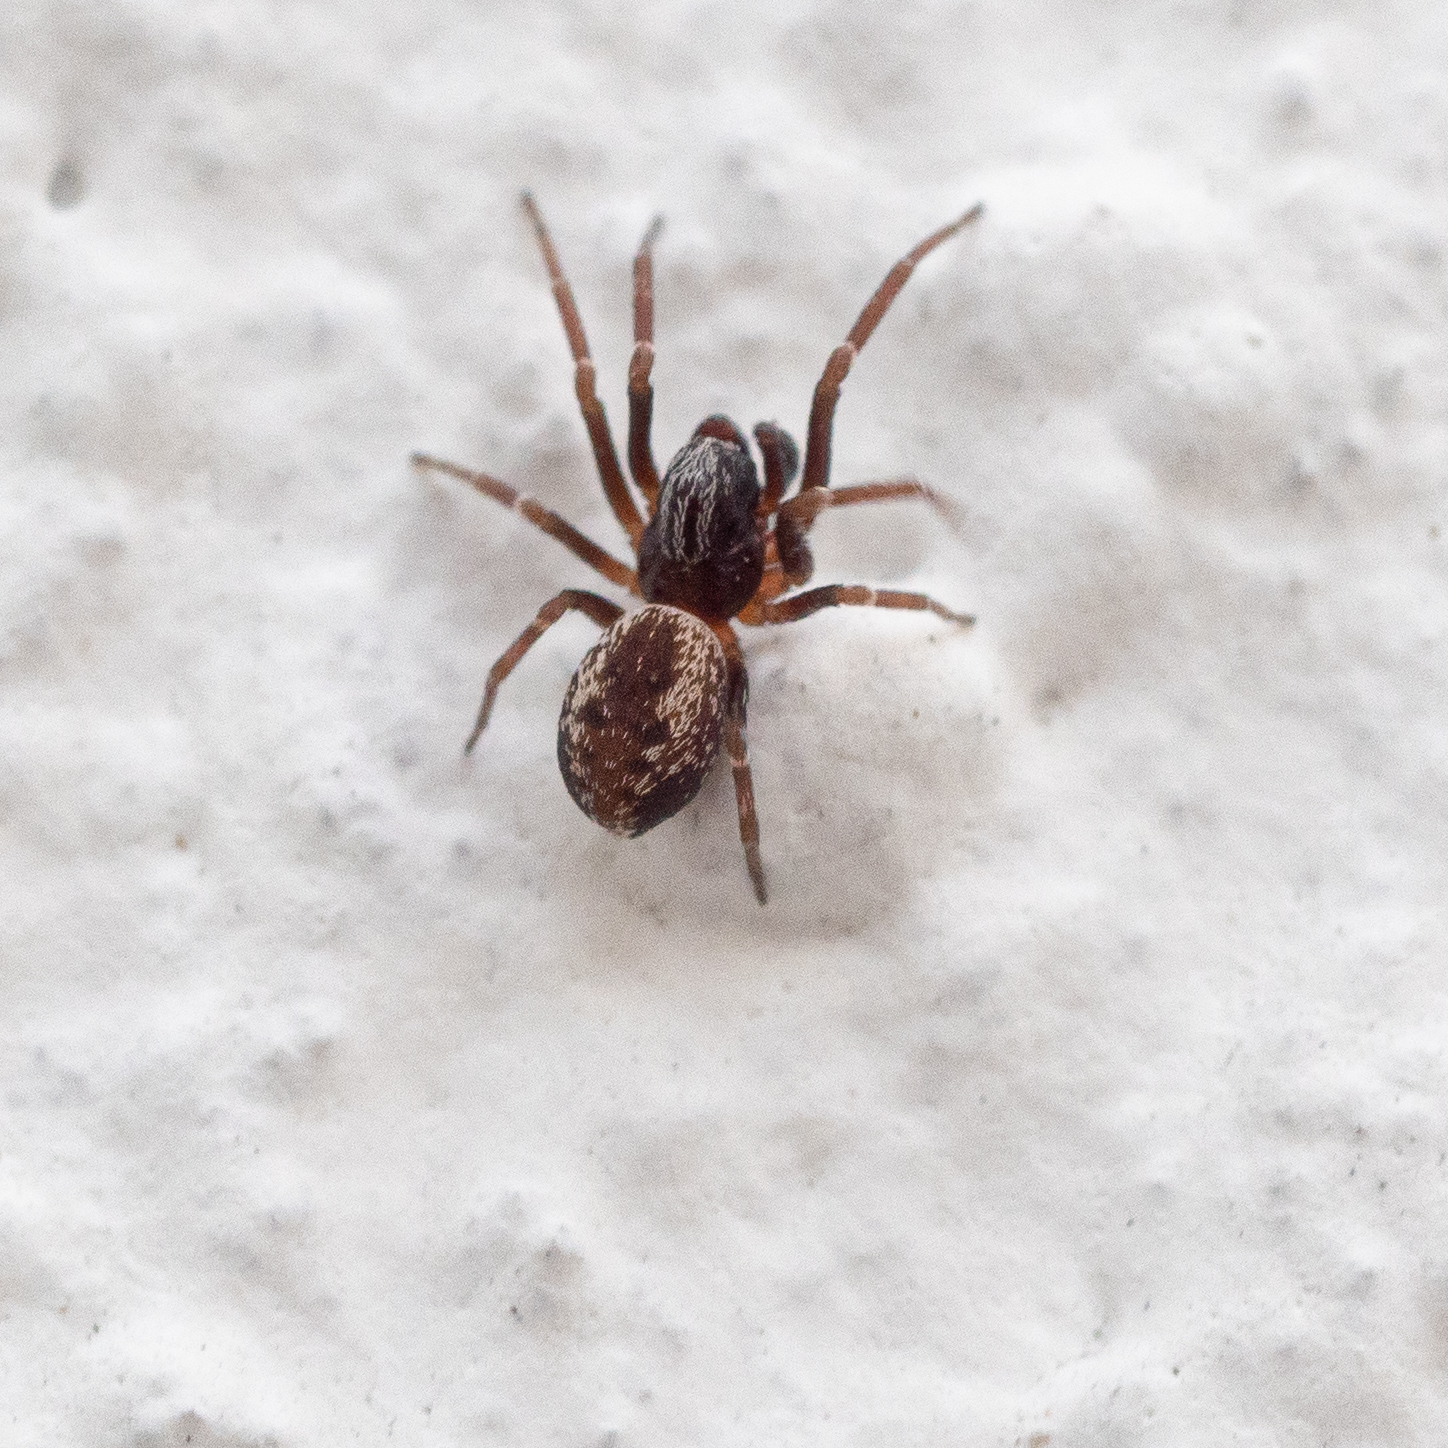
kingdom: Animalia
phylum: Arthropoda
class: Arachnida
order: Araneae
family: Dictynidae
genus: Brigittea
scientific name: Brigittea civica
